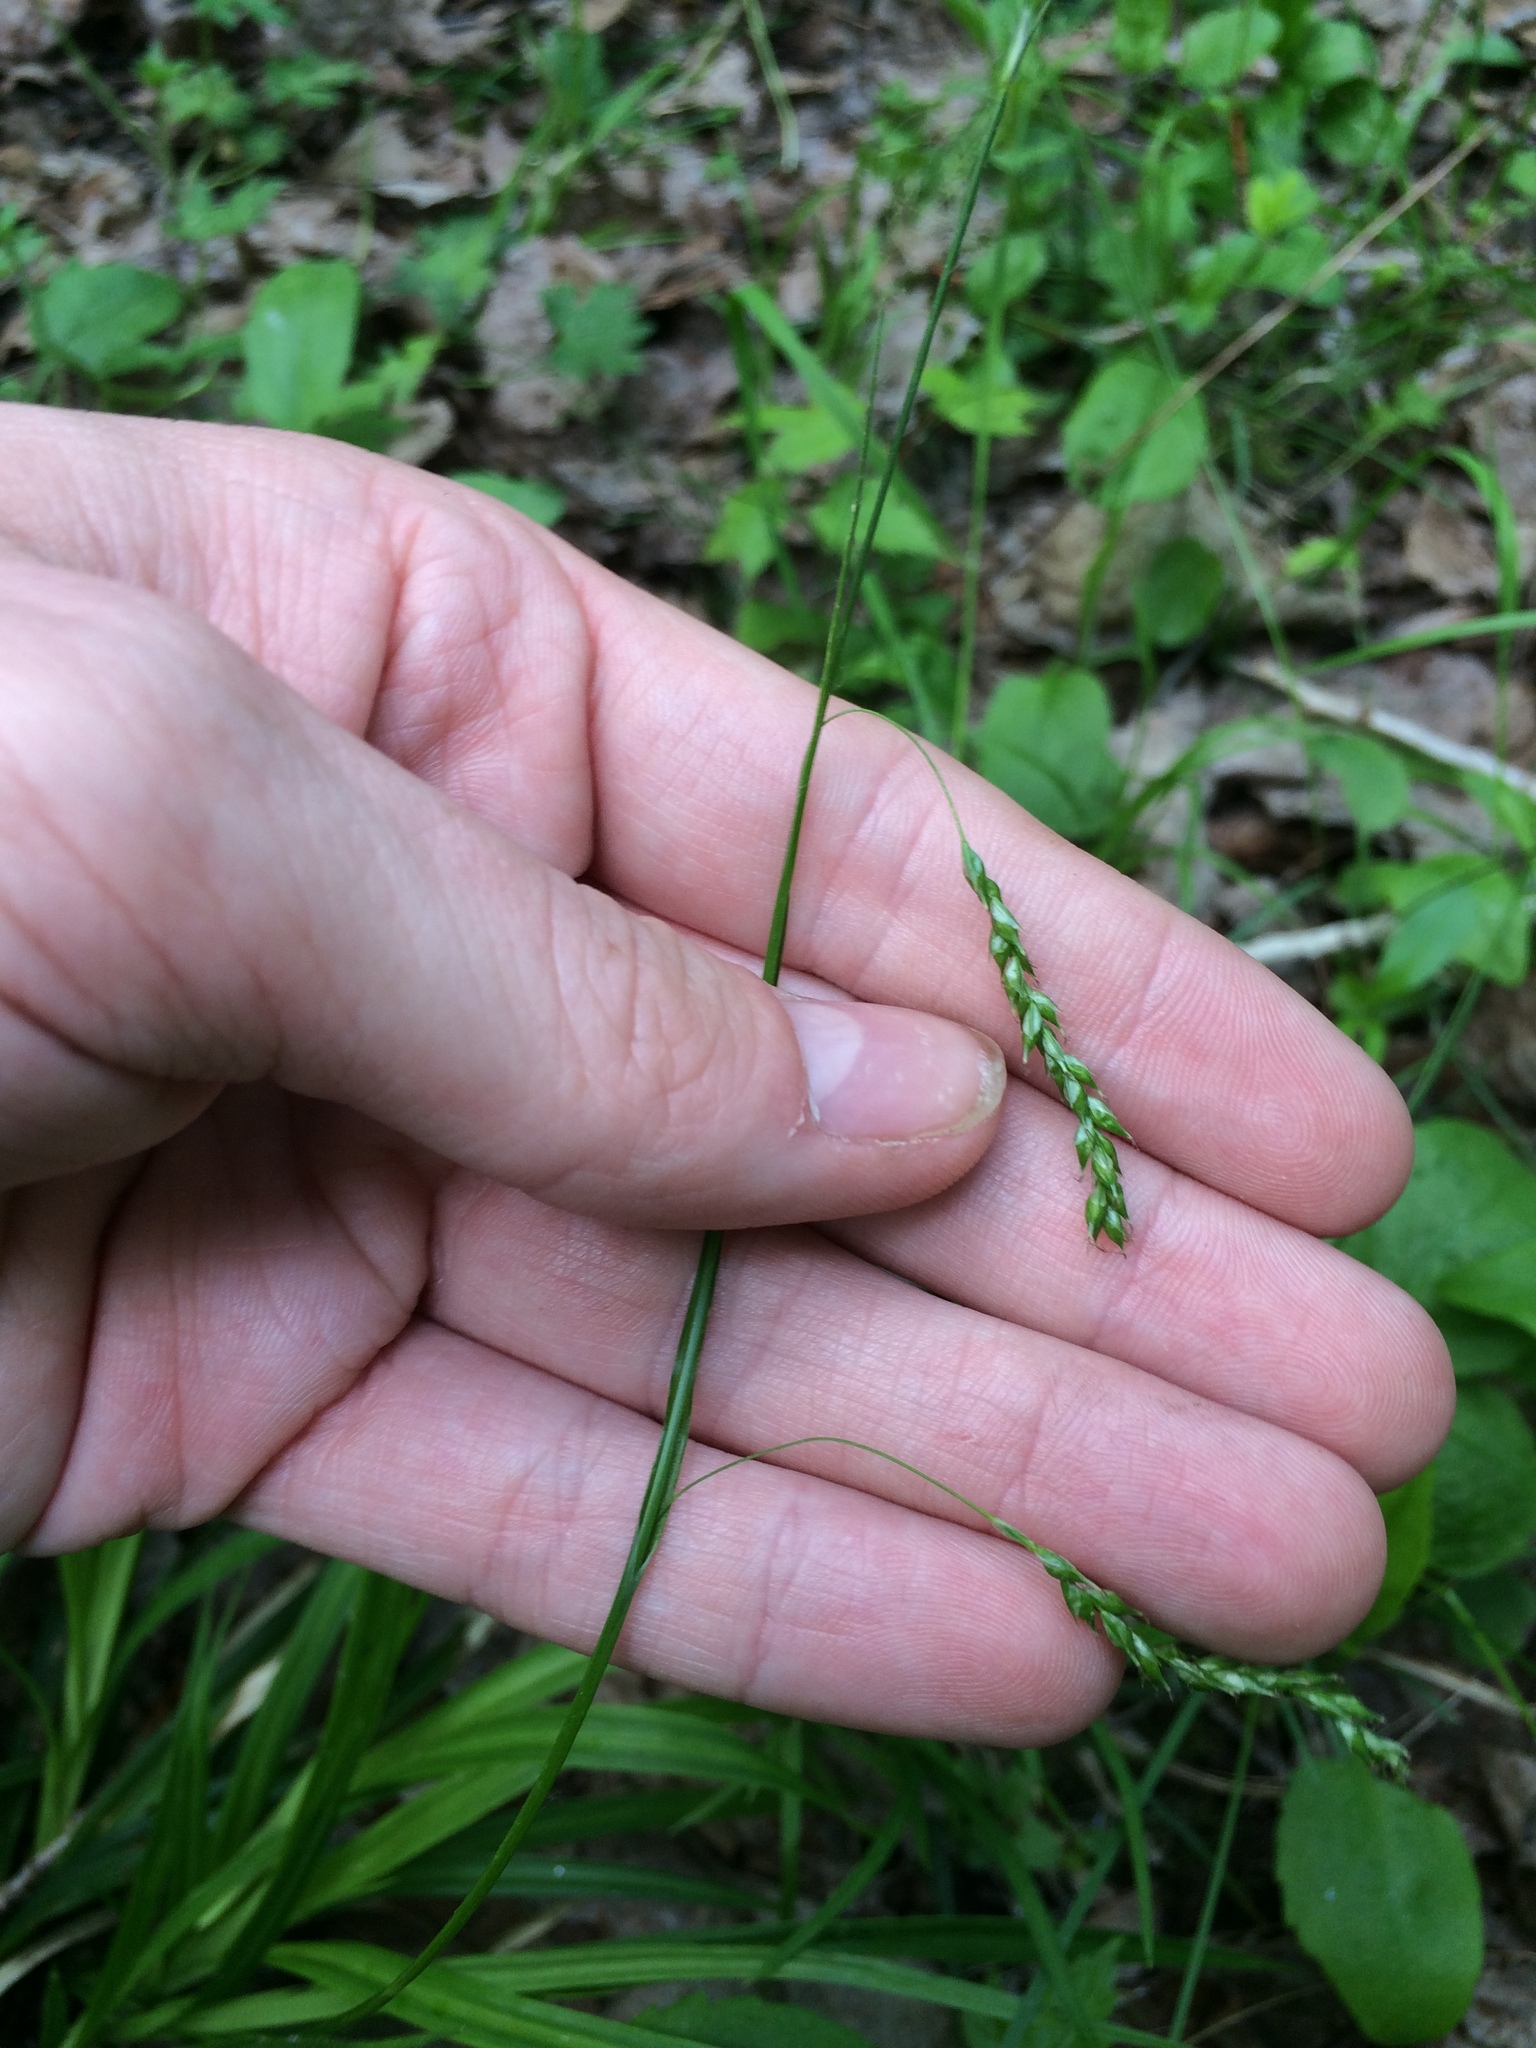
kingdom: Plantae
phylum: Tracheophyta
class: Liliopsida
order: Poales
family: Cyperaceae
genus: Carex
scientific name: Carex arctata
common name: Black sedge
